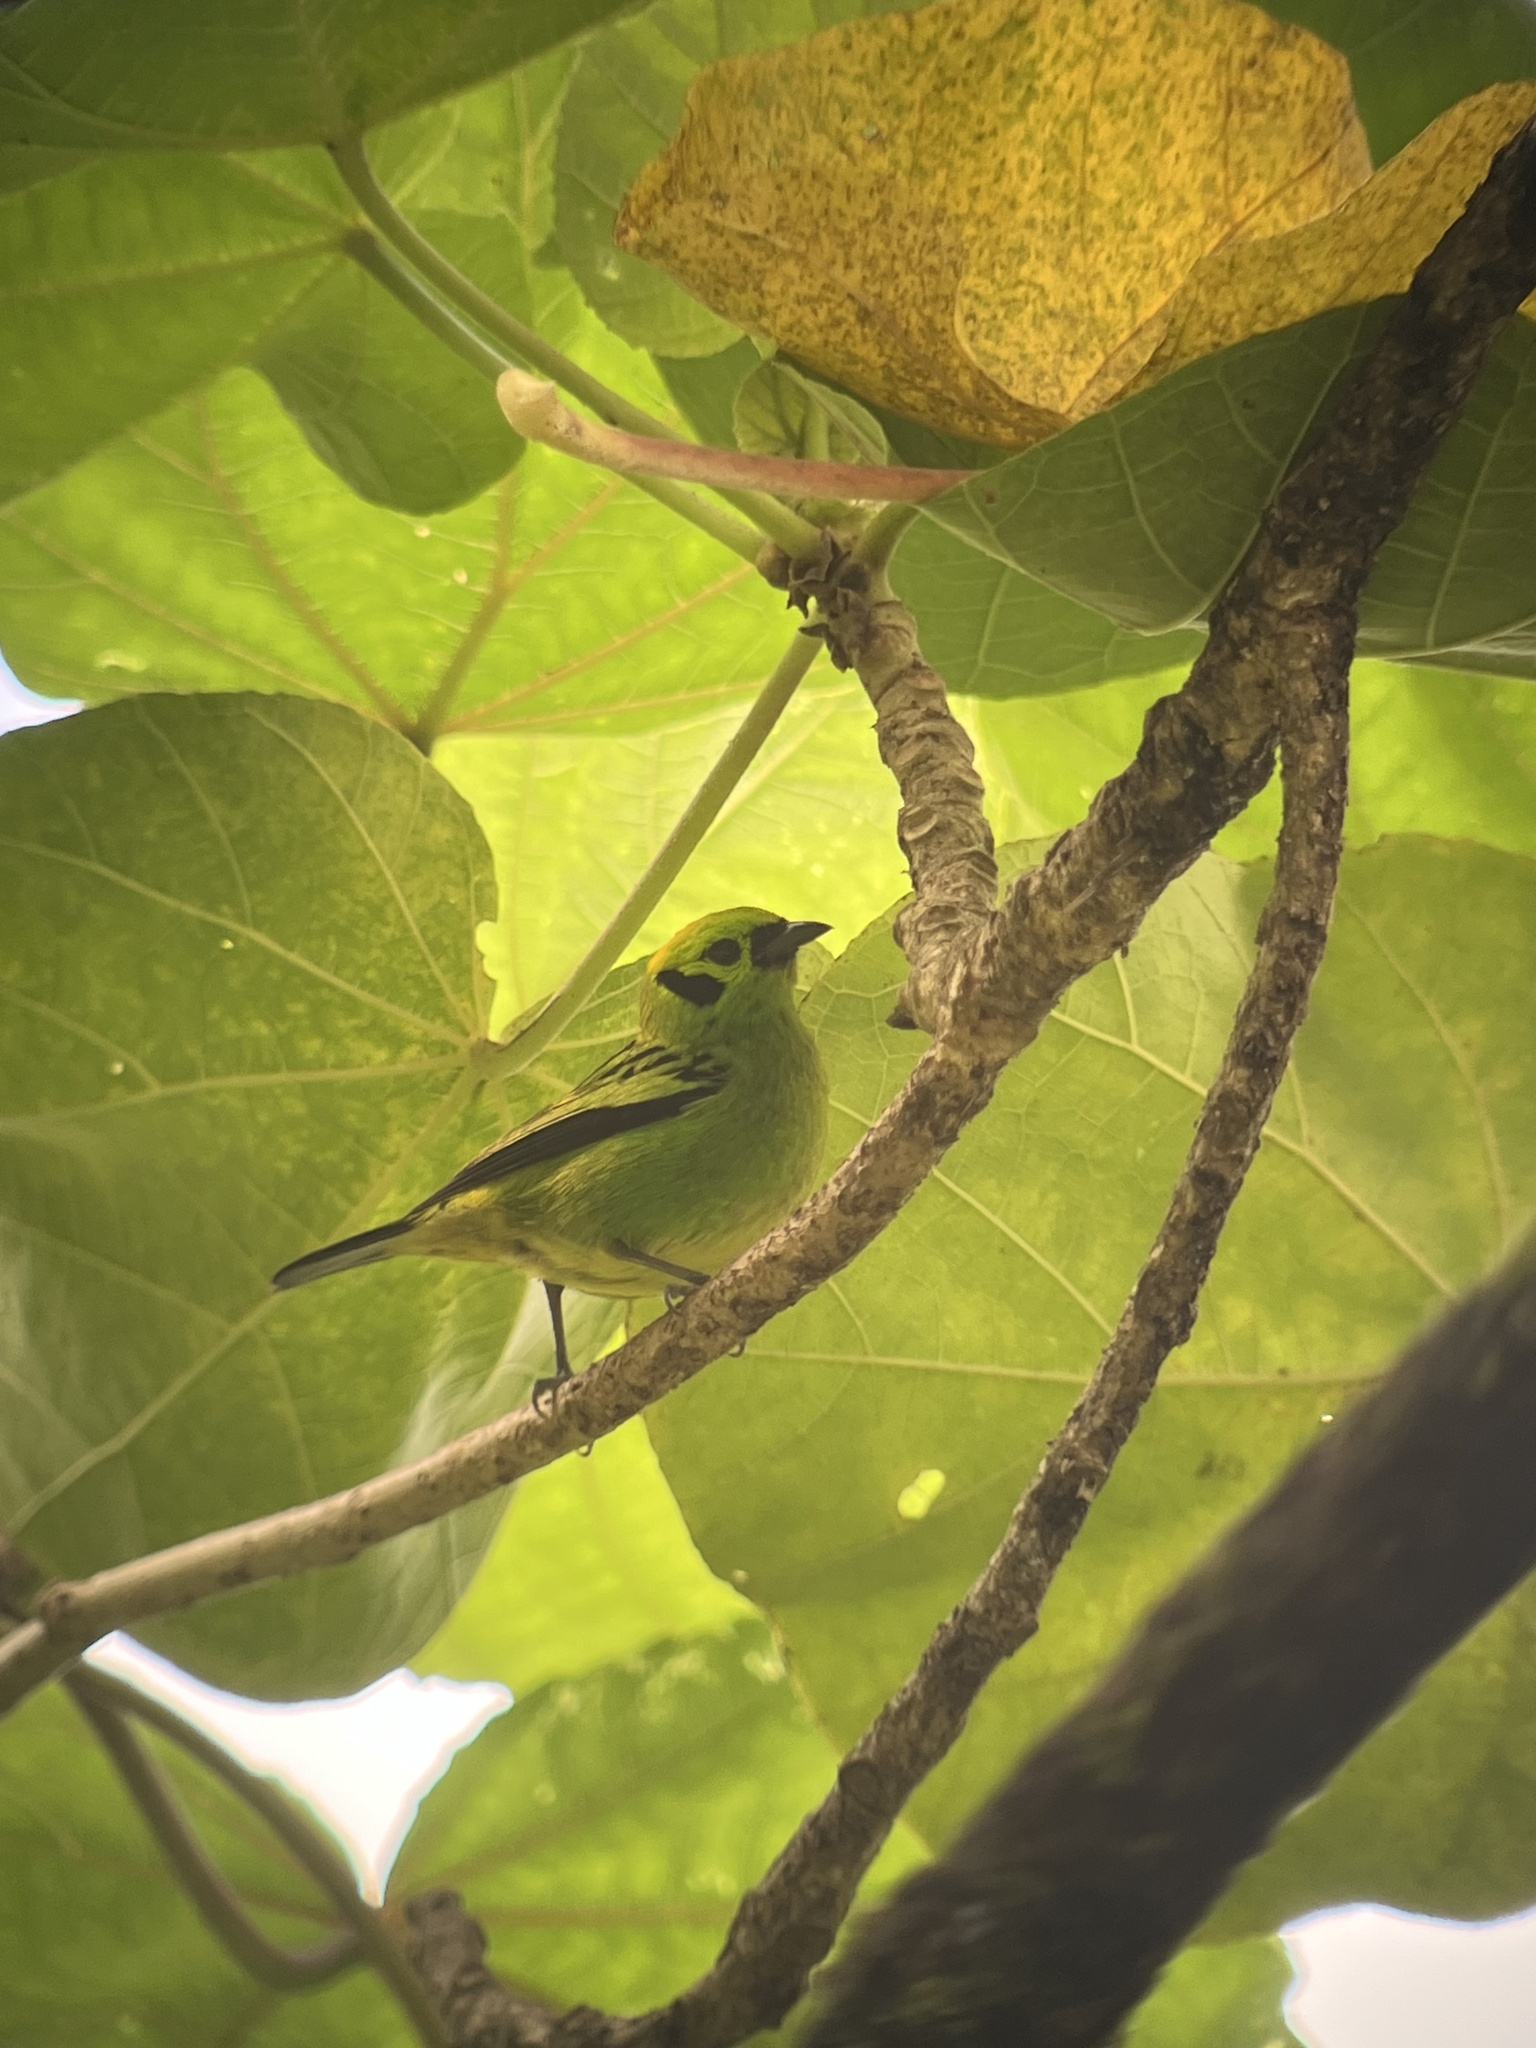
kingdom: Animalia
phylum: Chordata
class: Aves
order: Passeriformes
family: Thraupidae
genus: Tangara
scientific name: Tangara florida
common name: Emerald tanager
